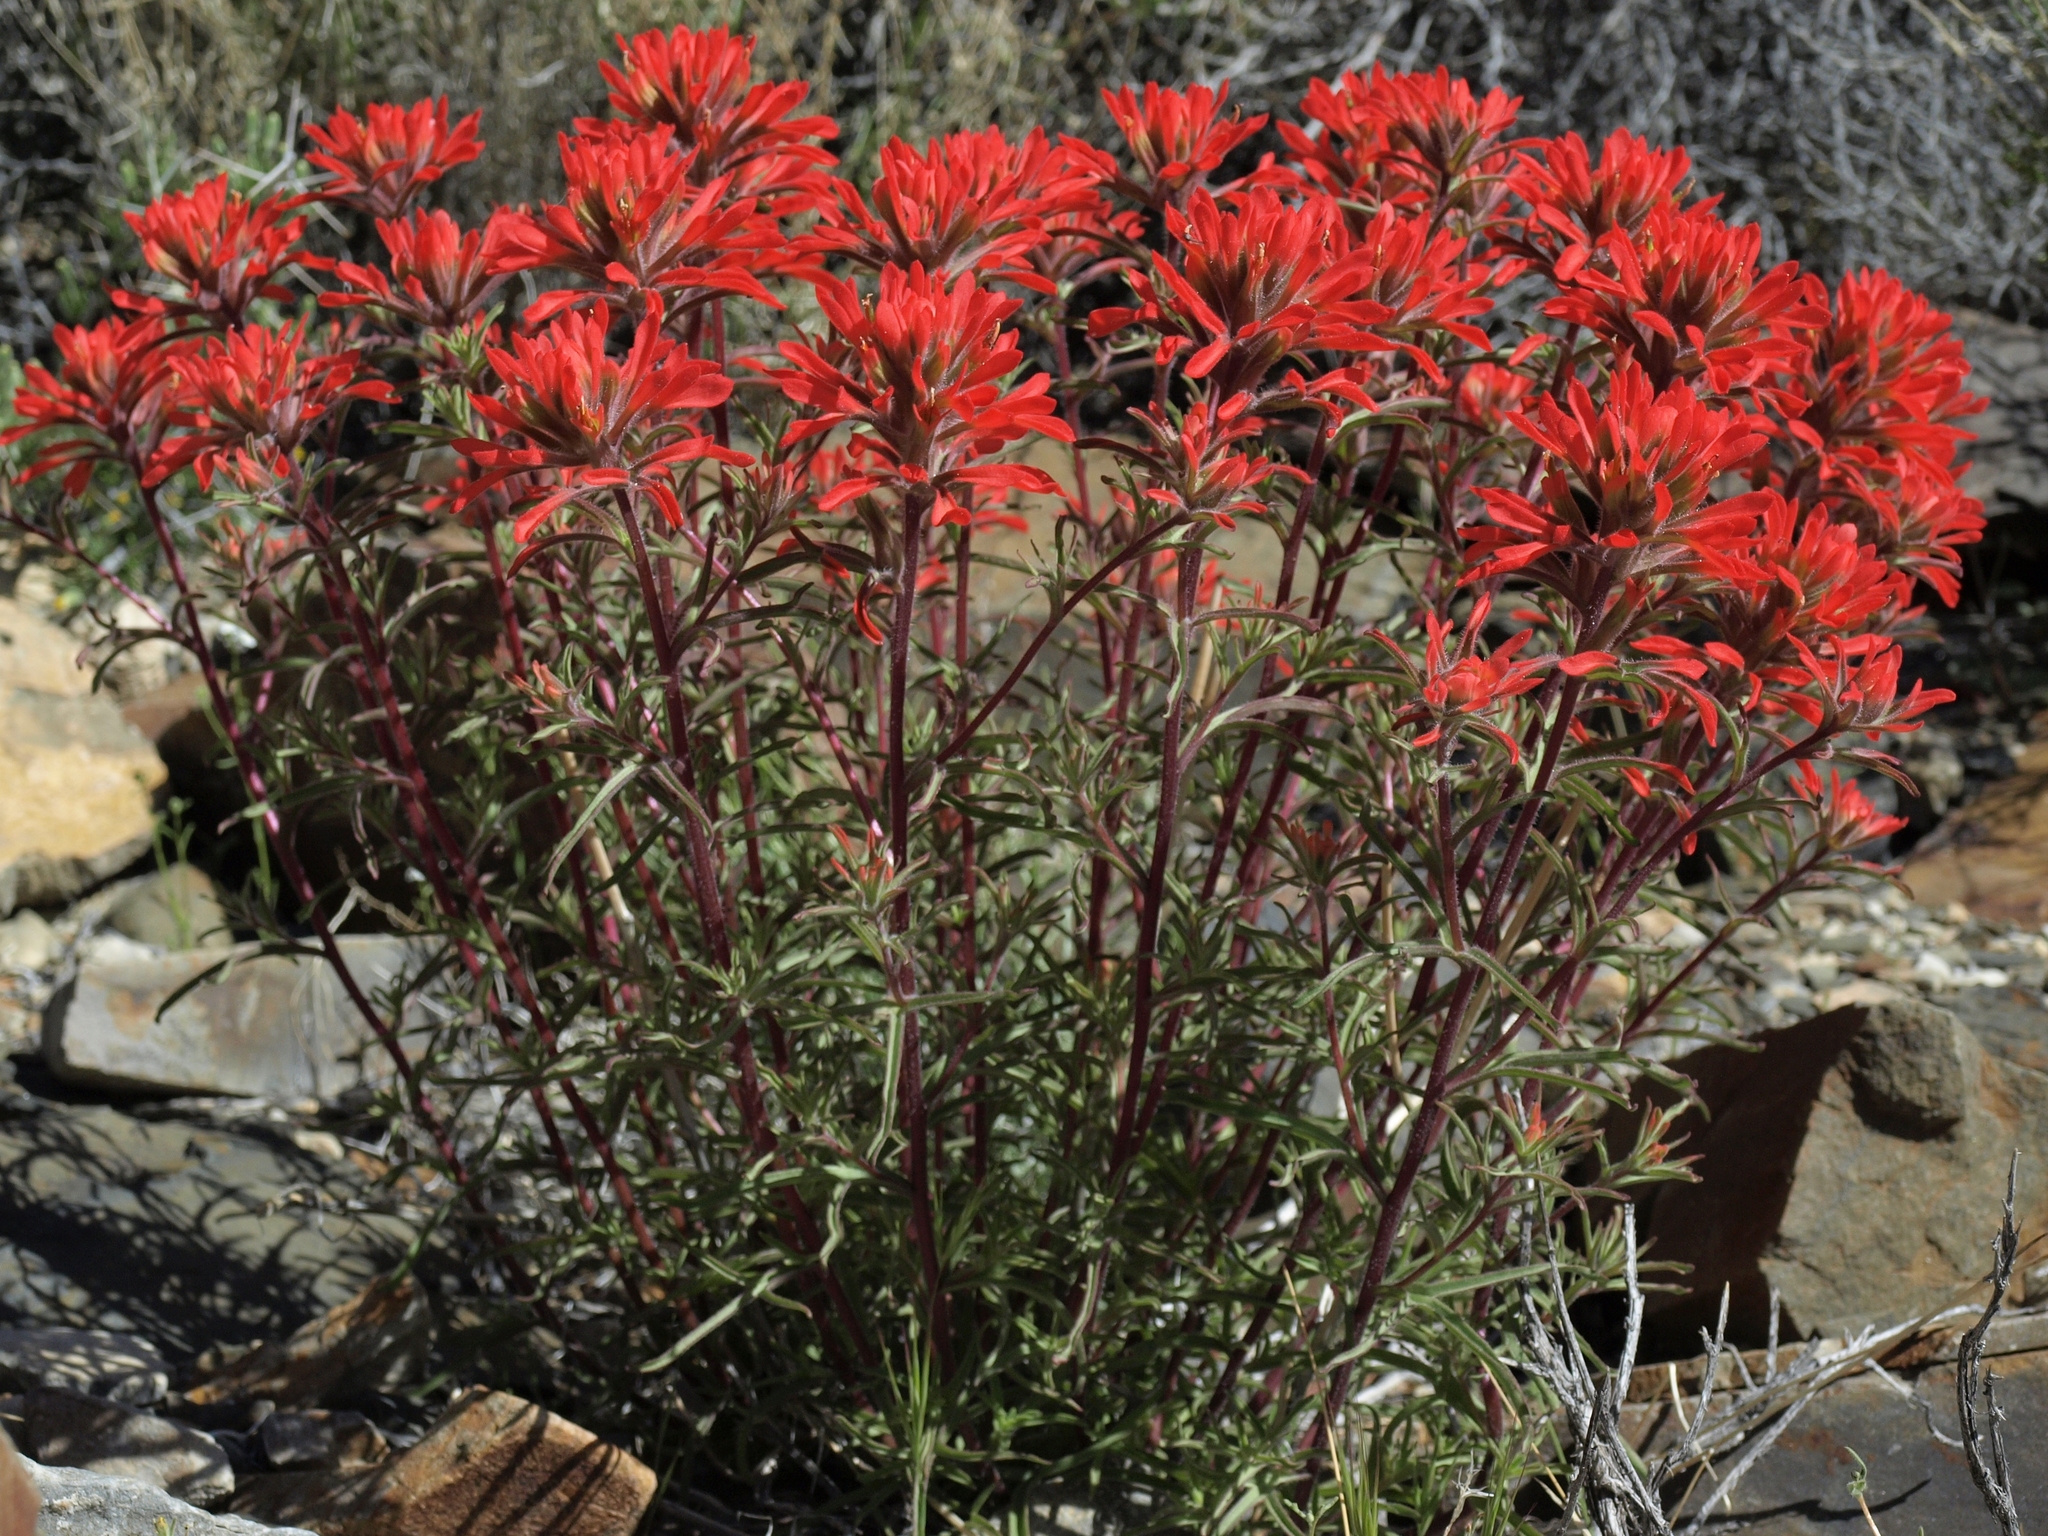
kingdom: Plantae
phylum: Tracheophyta
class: Magnoliopsida
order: Lamiales
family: Orobanchaceae
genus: Castilleja
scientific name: Castilleja chromosa
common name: Desert paintbrush
